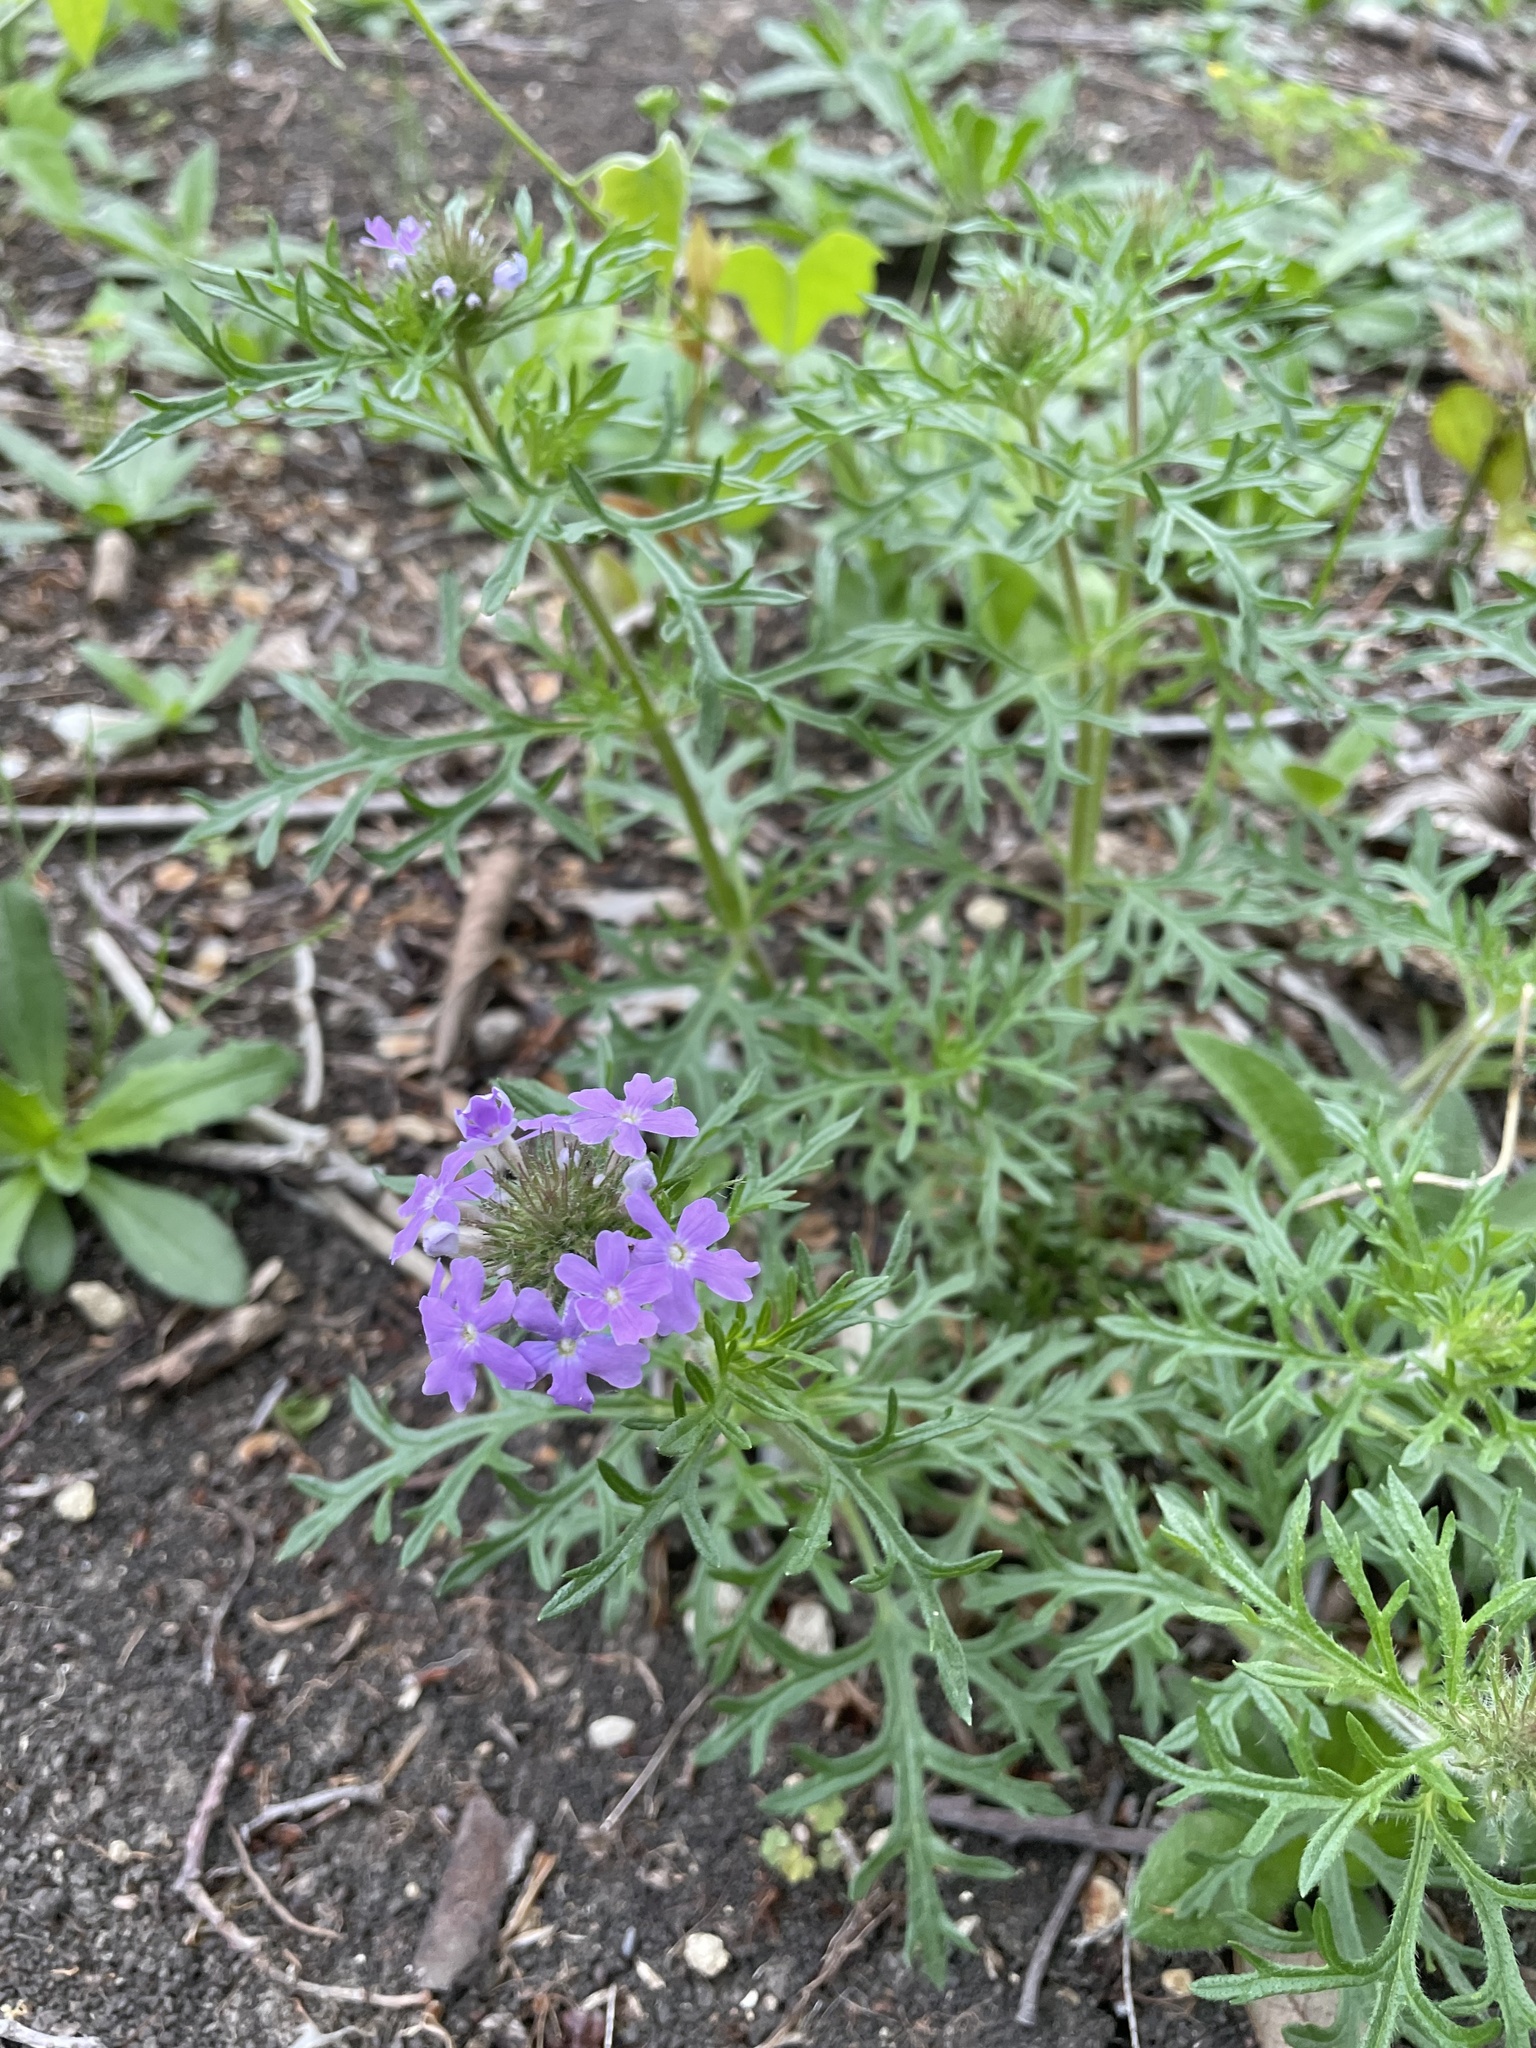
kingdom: Plantae
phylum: Tracheophyta
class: Magnoliopsida
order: Lamiales
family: Verbenaceae
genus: Verbena
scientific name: Verbena bipinnatifida
